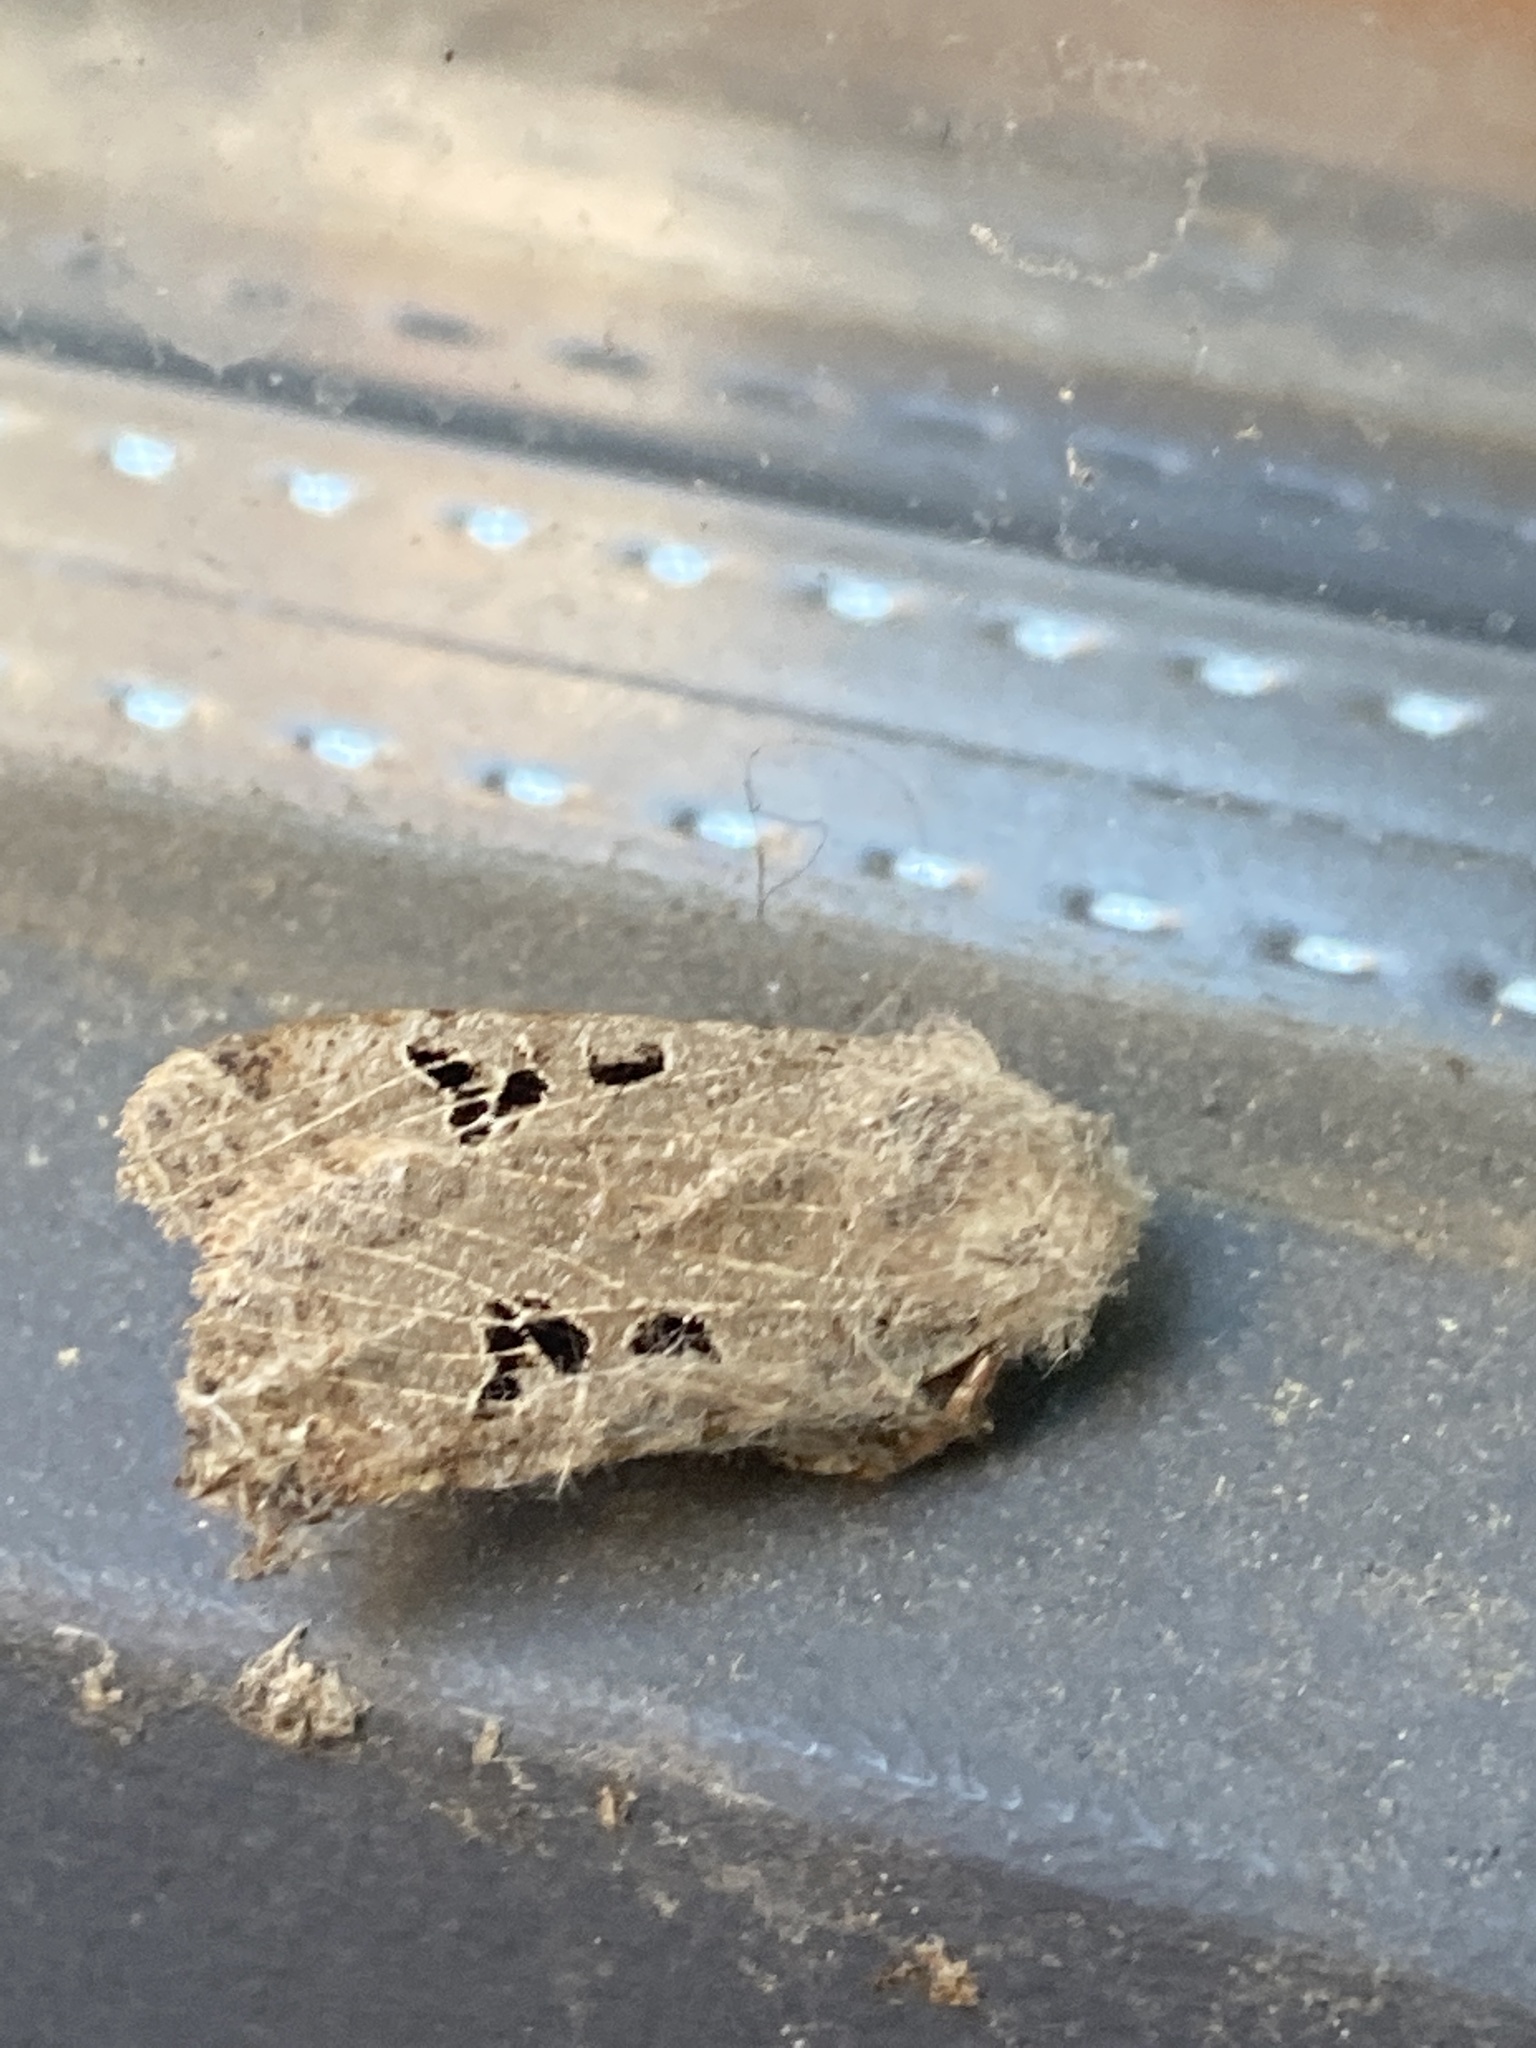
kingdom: Animalia
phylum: Arthropoda
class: Insecta
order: Lepidoptera
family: Noctuidae
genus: Conistra
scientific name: Conistra rubiginosa
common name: Black-spotted chestnut
